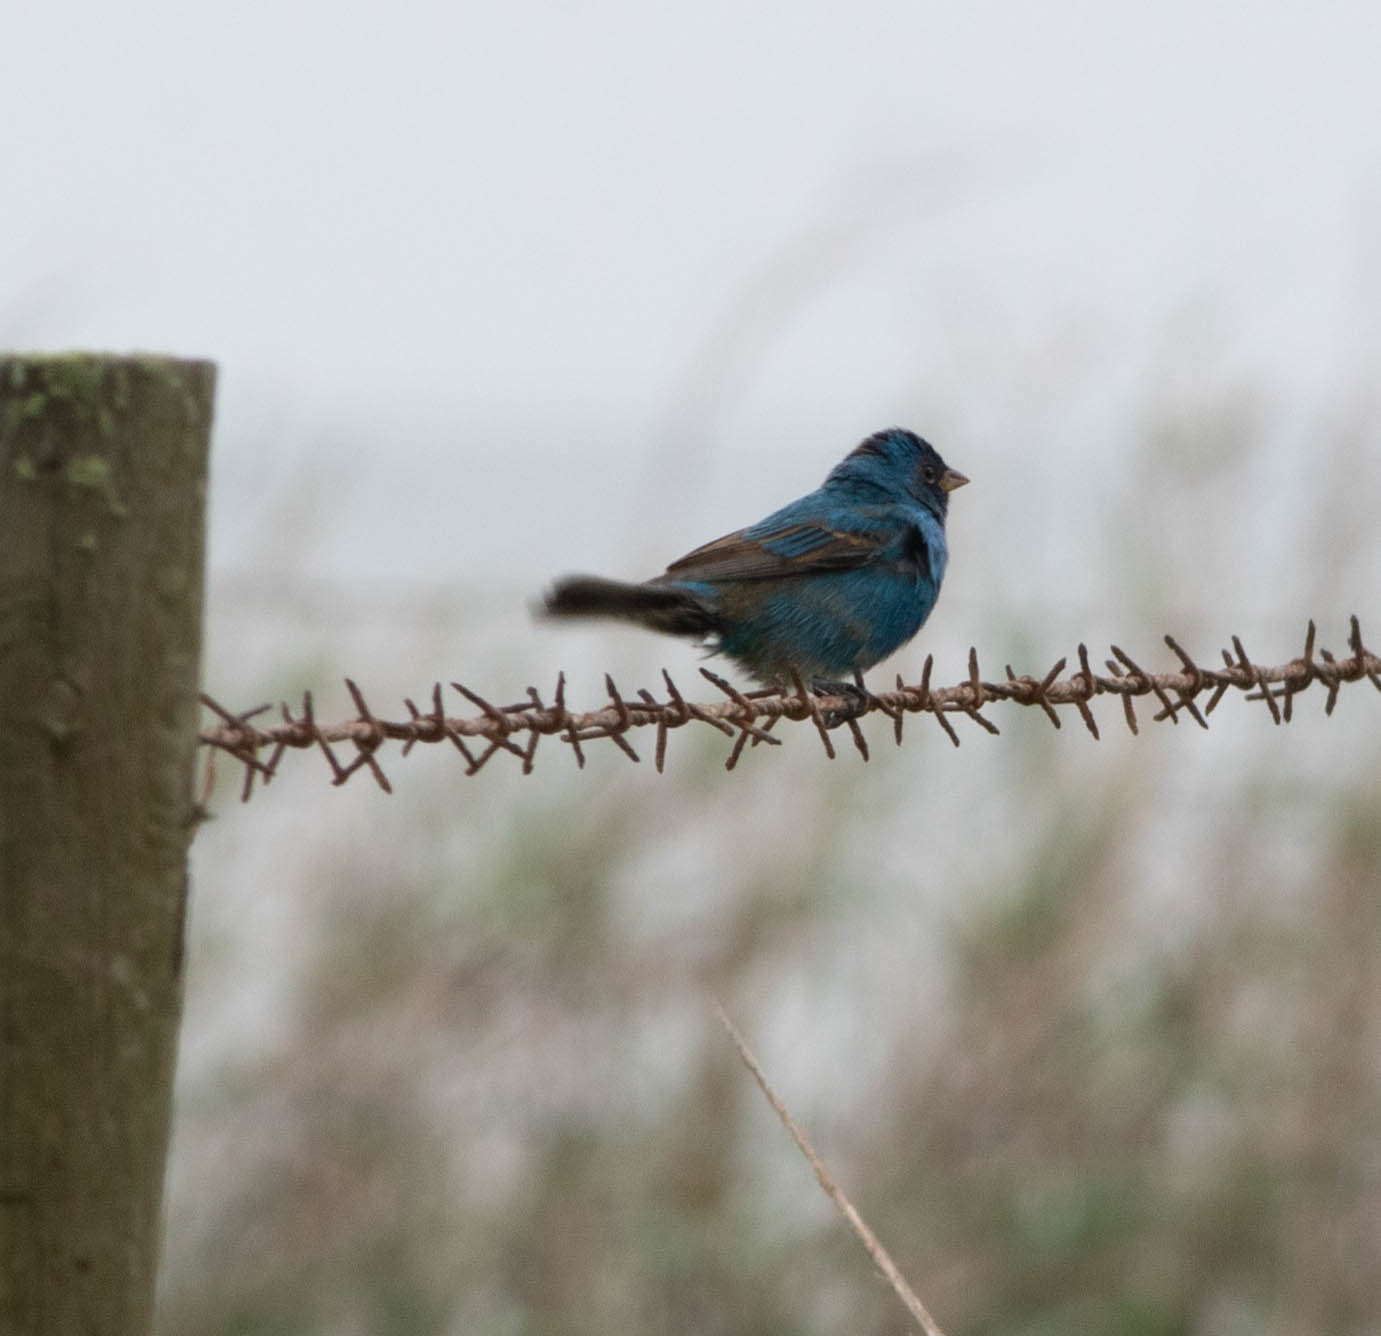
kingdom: Animalia
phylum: Chordata
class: Aves
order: Passeriformes
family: Cardinalidae
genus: Passerina
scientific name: Passerina cyanea
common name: Indigo bunting
